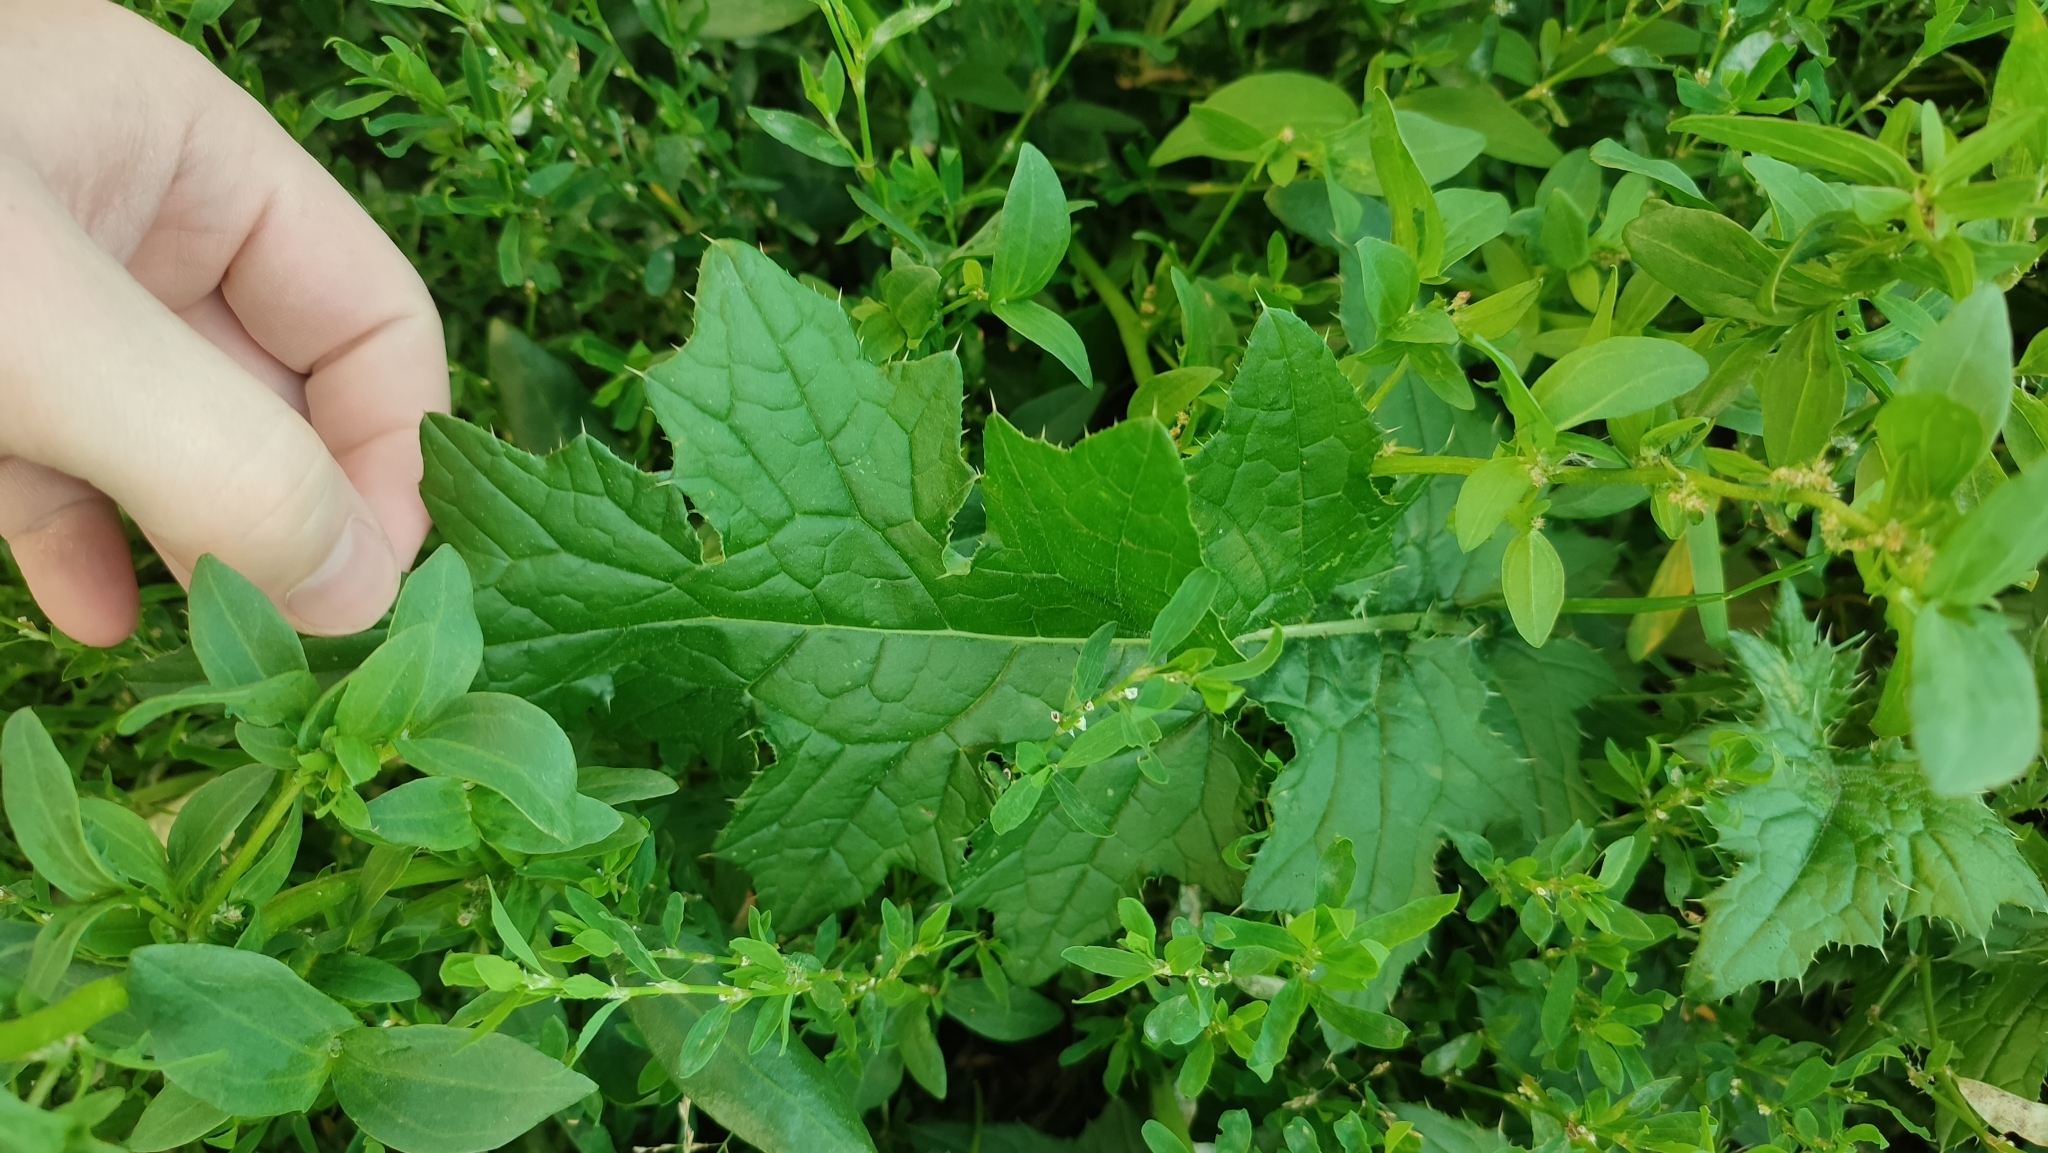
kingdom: Plantae
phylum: Tracheophyta
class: Magnoliopsida
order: Asterales
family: Asteraceae
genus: Carduus
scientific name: Carduus crispus
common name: Welted thistle
